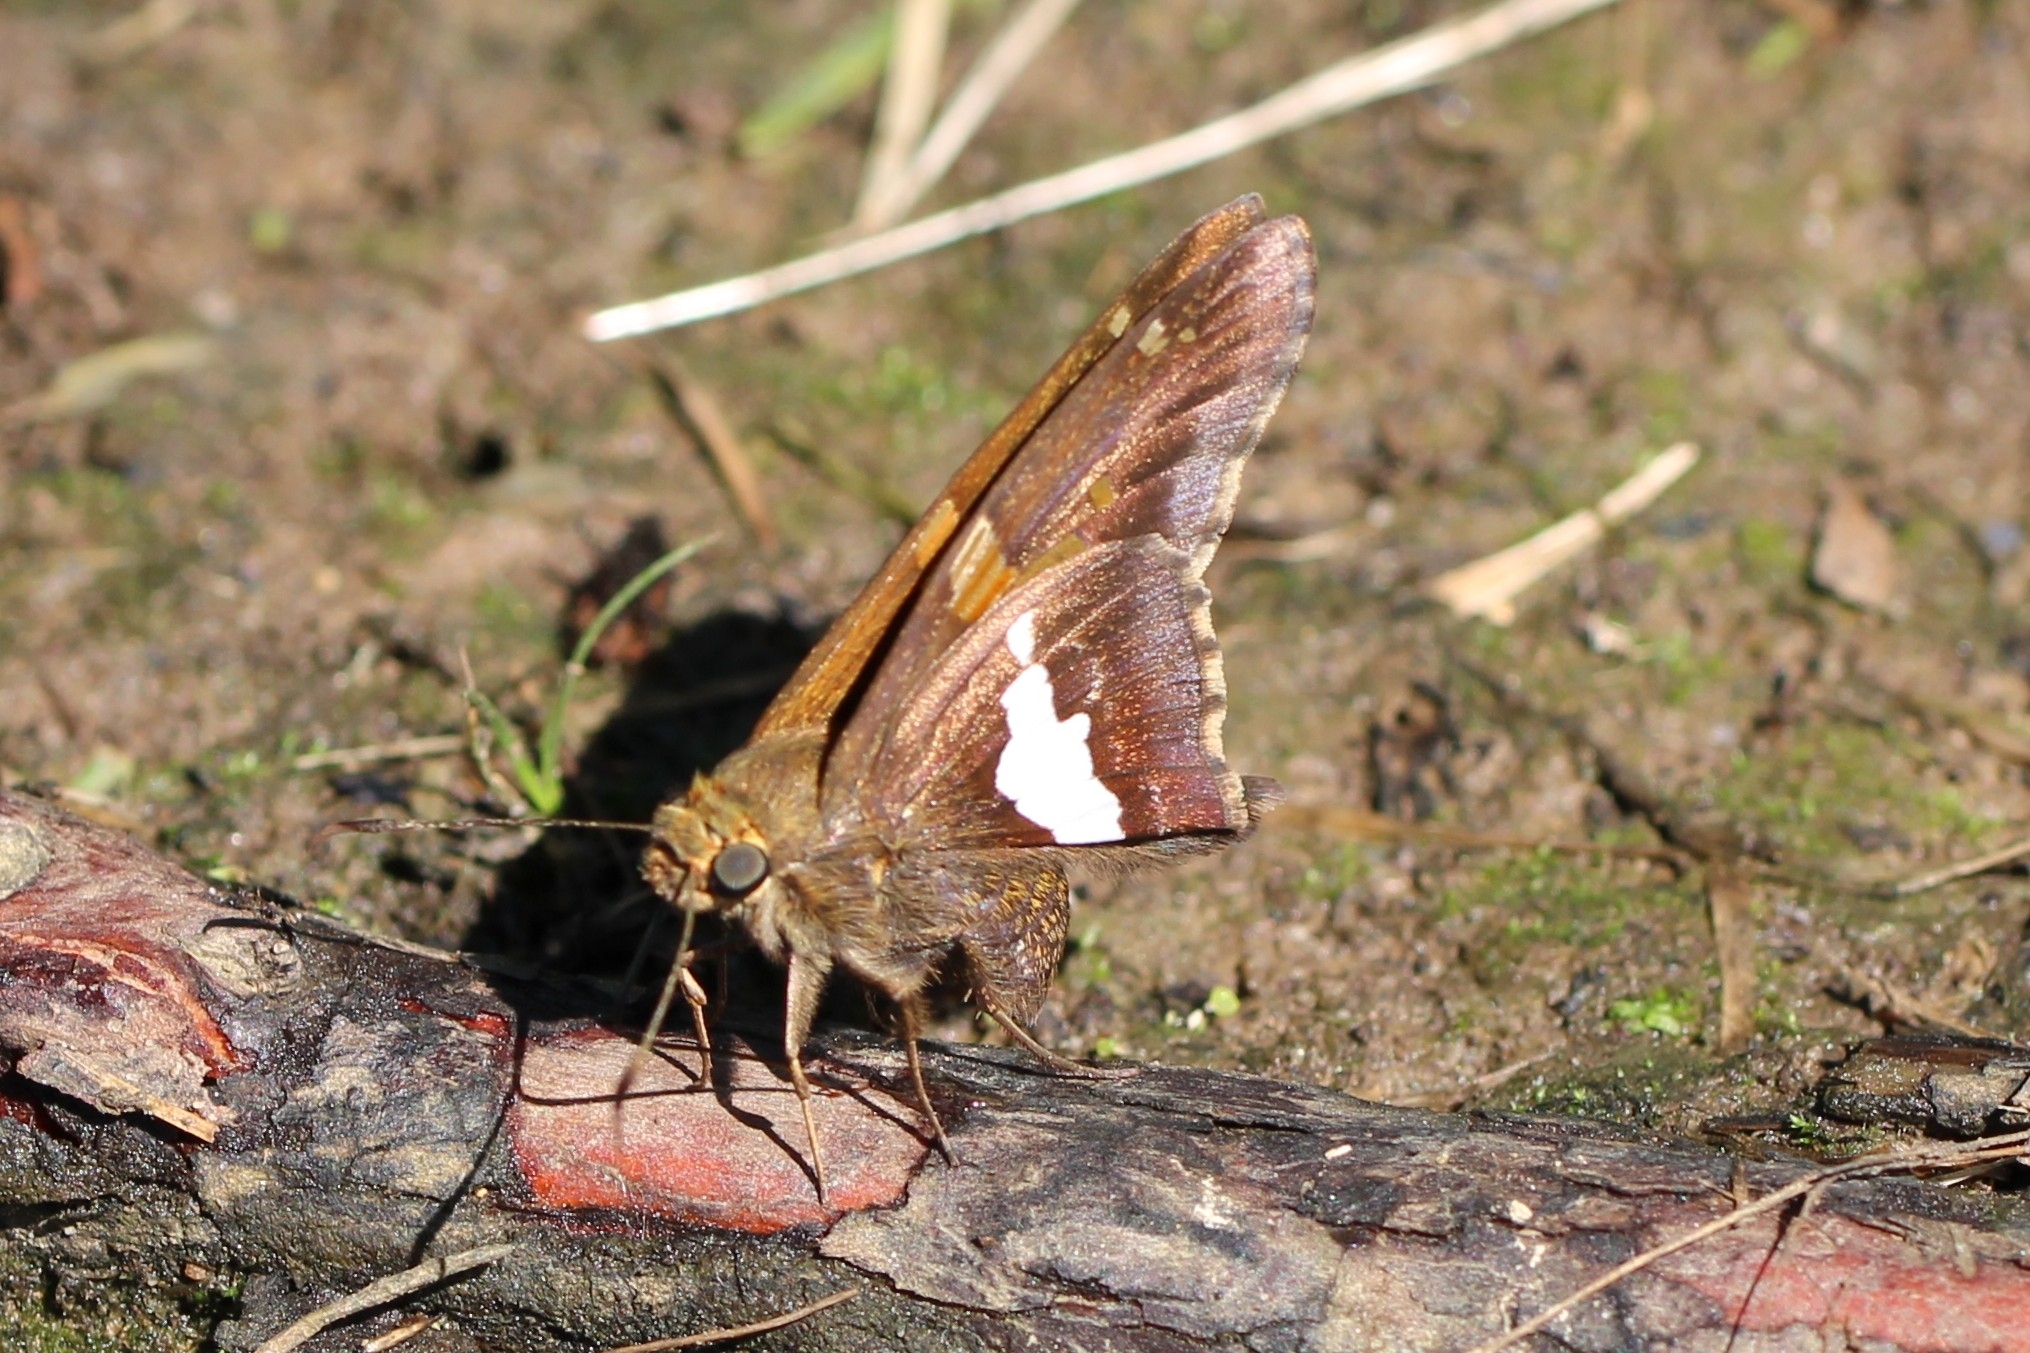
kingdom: Animalia
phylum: Arthropoda
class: Insecta
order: Lepidoptera
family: Hesperiidae
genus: Epargyreus
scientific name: Epargyreus clarus
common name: Silver-spotted skipper
